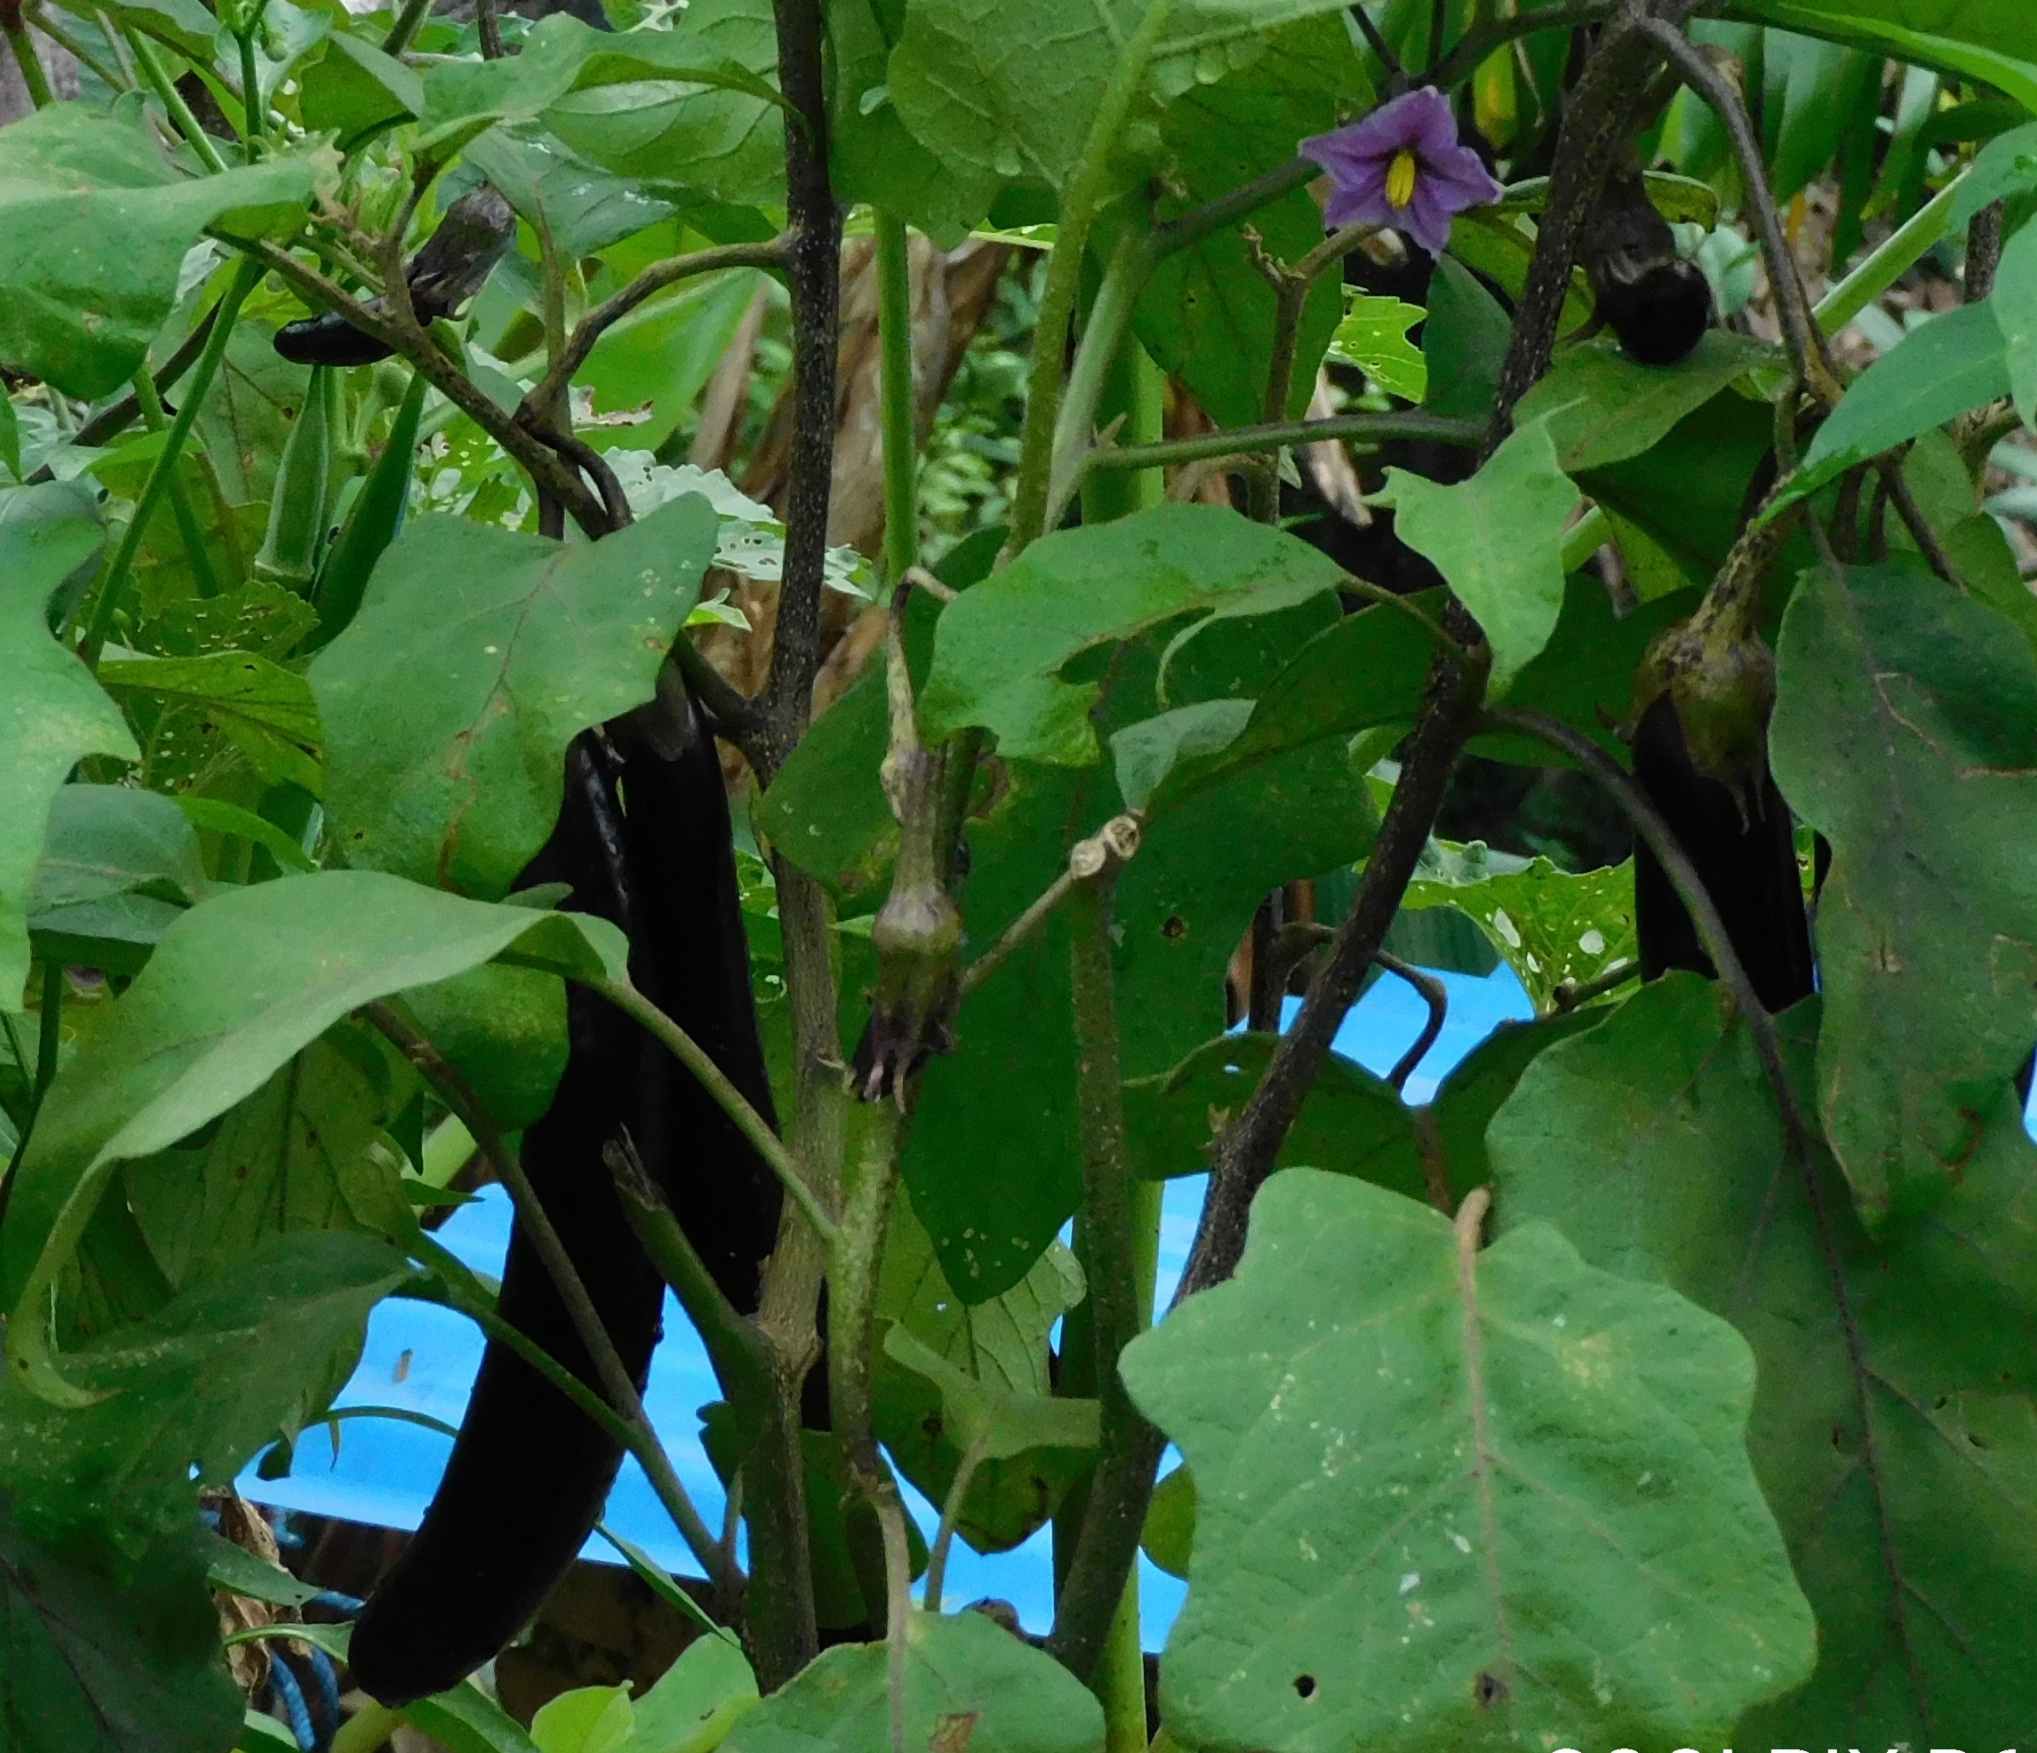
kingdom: Plantae
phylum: Tracheophyta
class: Magnoliopsida
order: Solanales
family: Solanaceae
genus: Solanum
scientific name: Solanum melongena
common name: Eggplant
